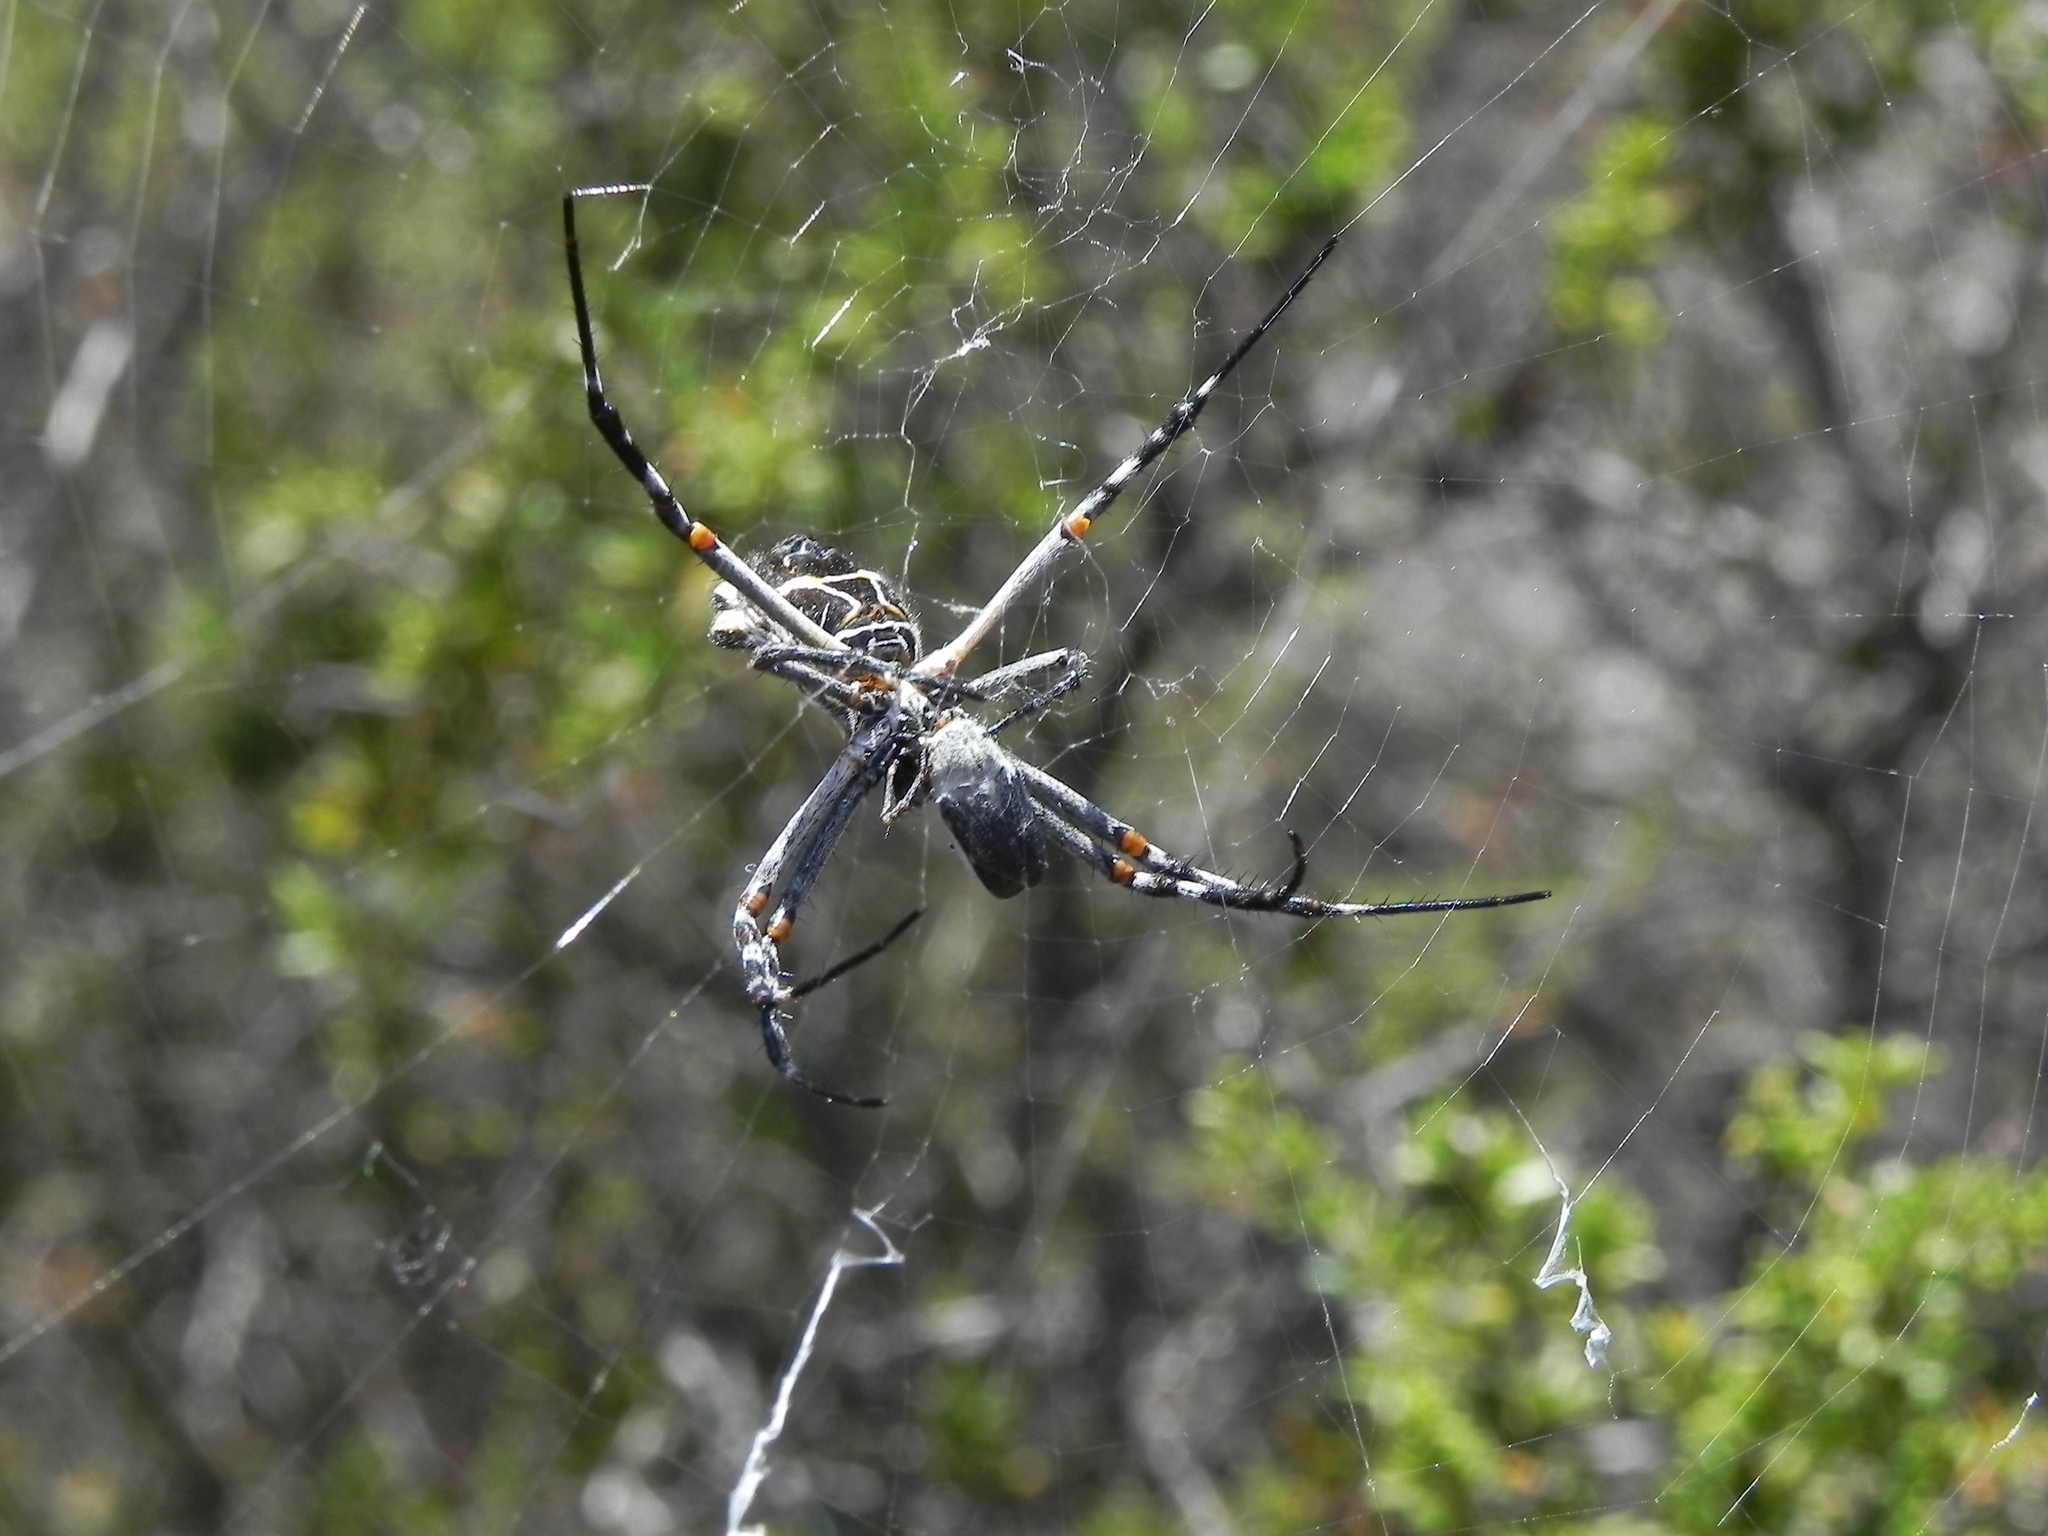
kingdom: Animalia
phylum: Arthropoda
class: Arachnida
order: Araneae
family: Araneidae
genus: Argiope
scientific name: Argiope argentata
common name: Orb weavers
